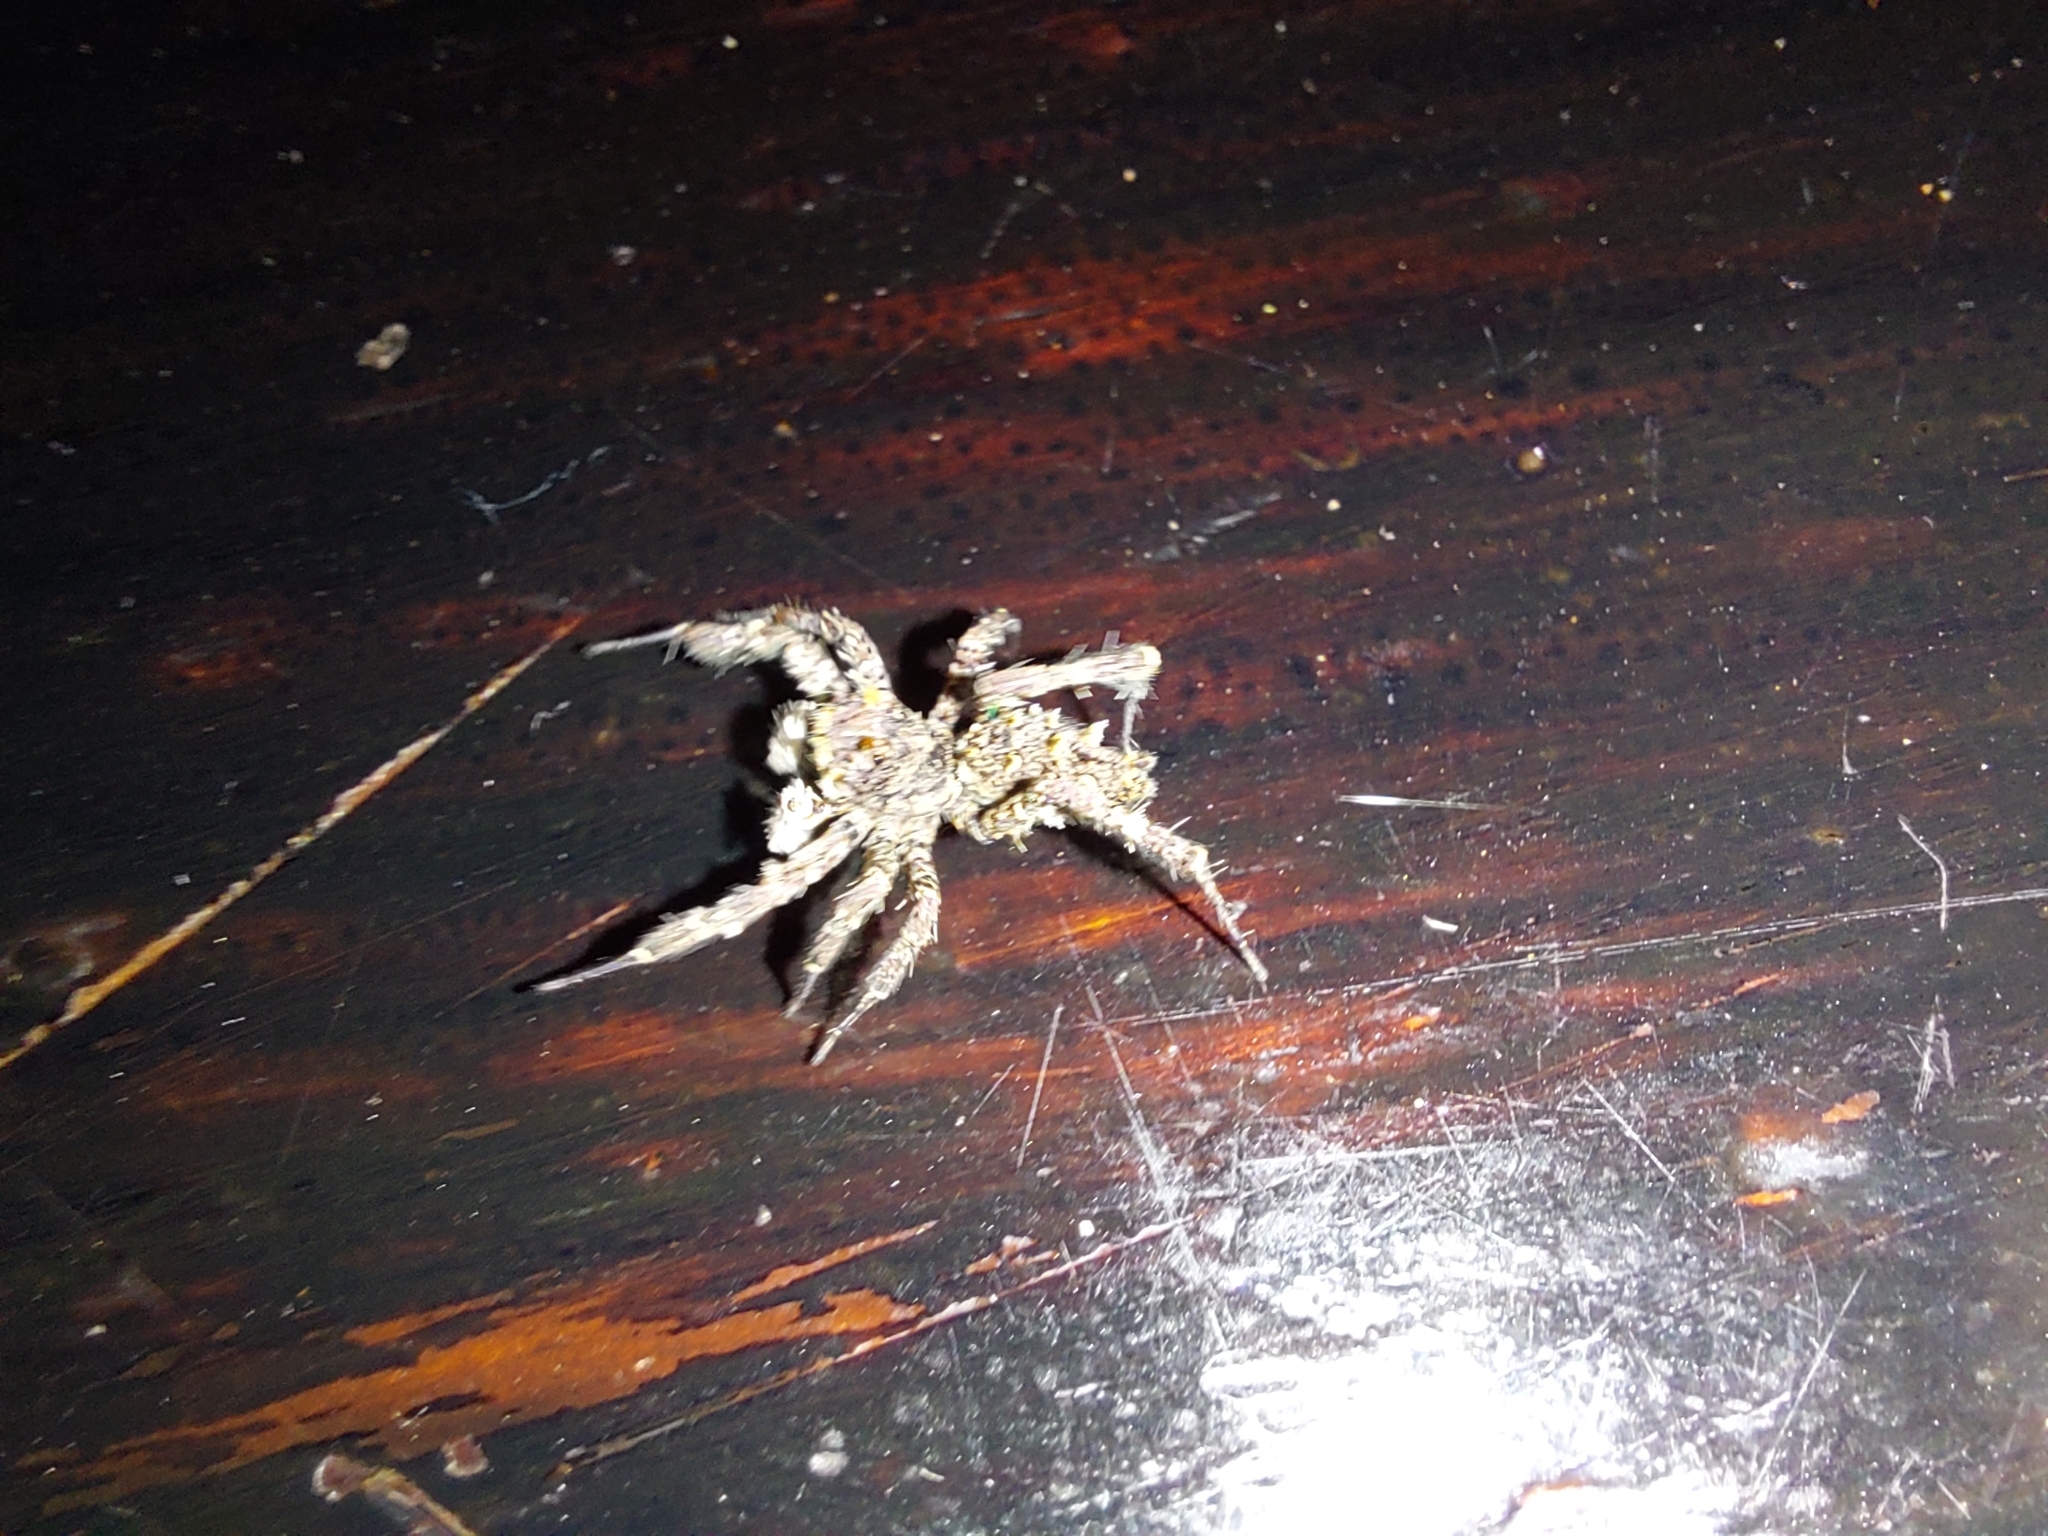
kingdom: Animalia
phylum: Arthropoda
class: Arachnida
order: Araneae
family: Salticidae
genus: Portia
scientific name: Portia schultzi
